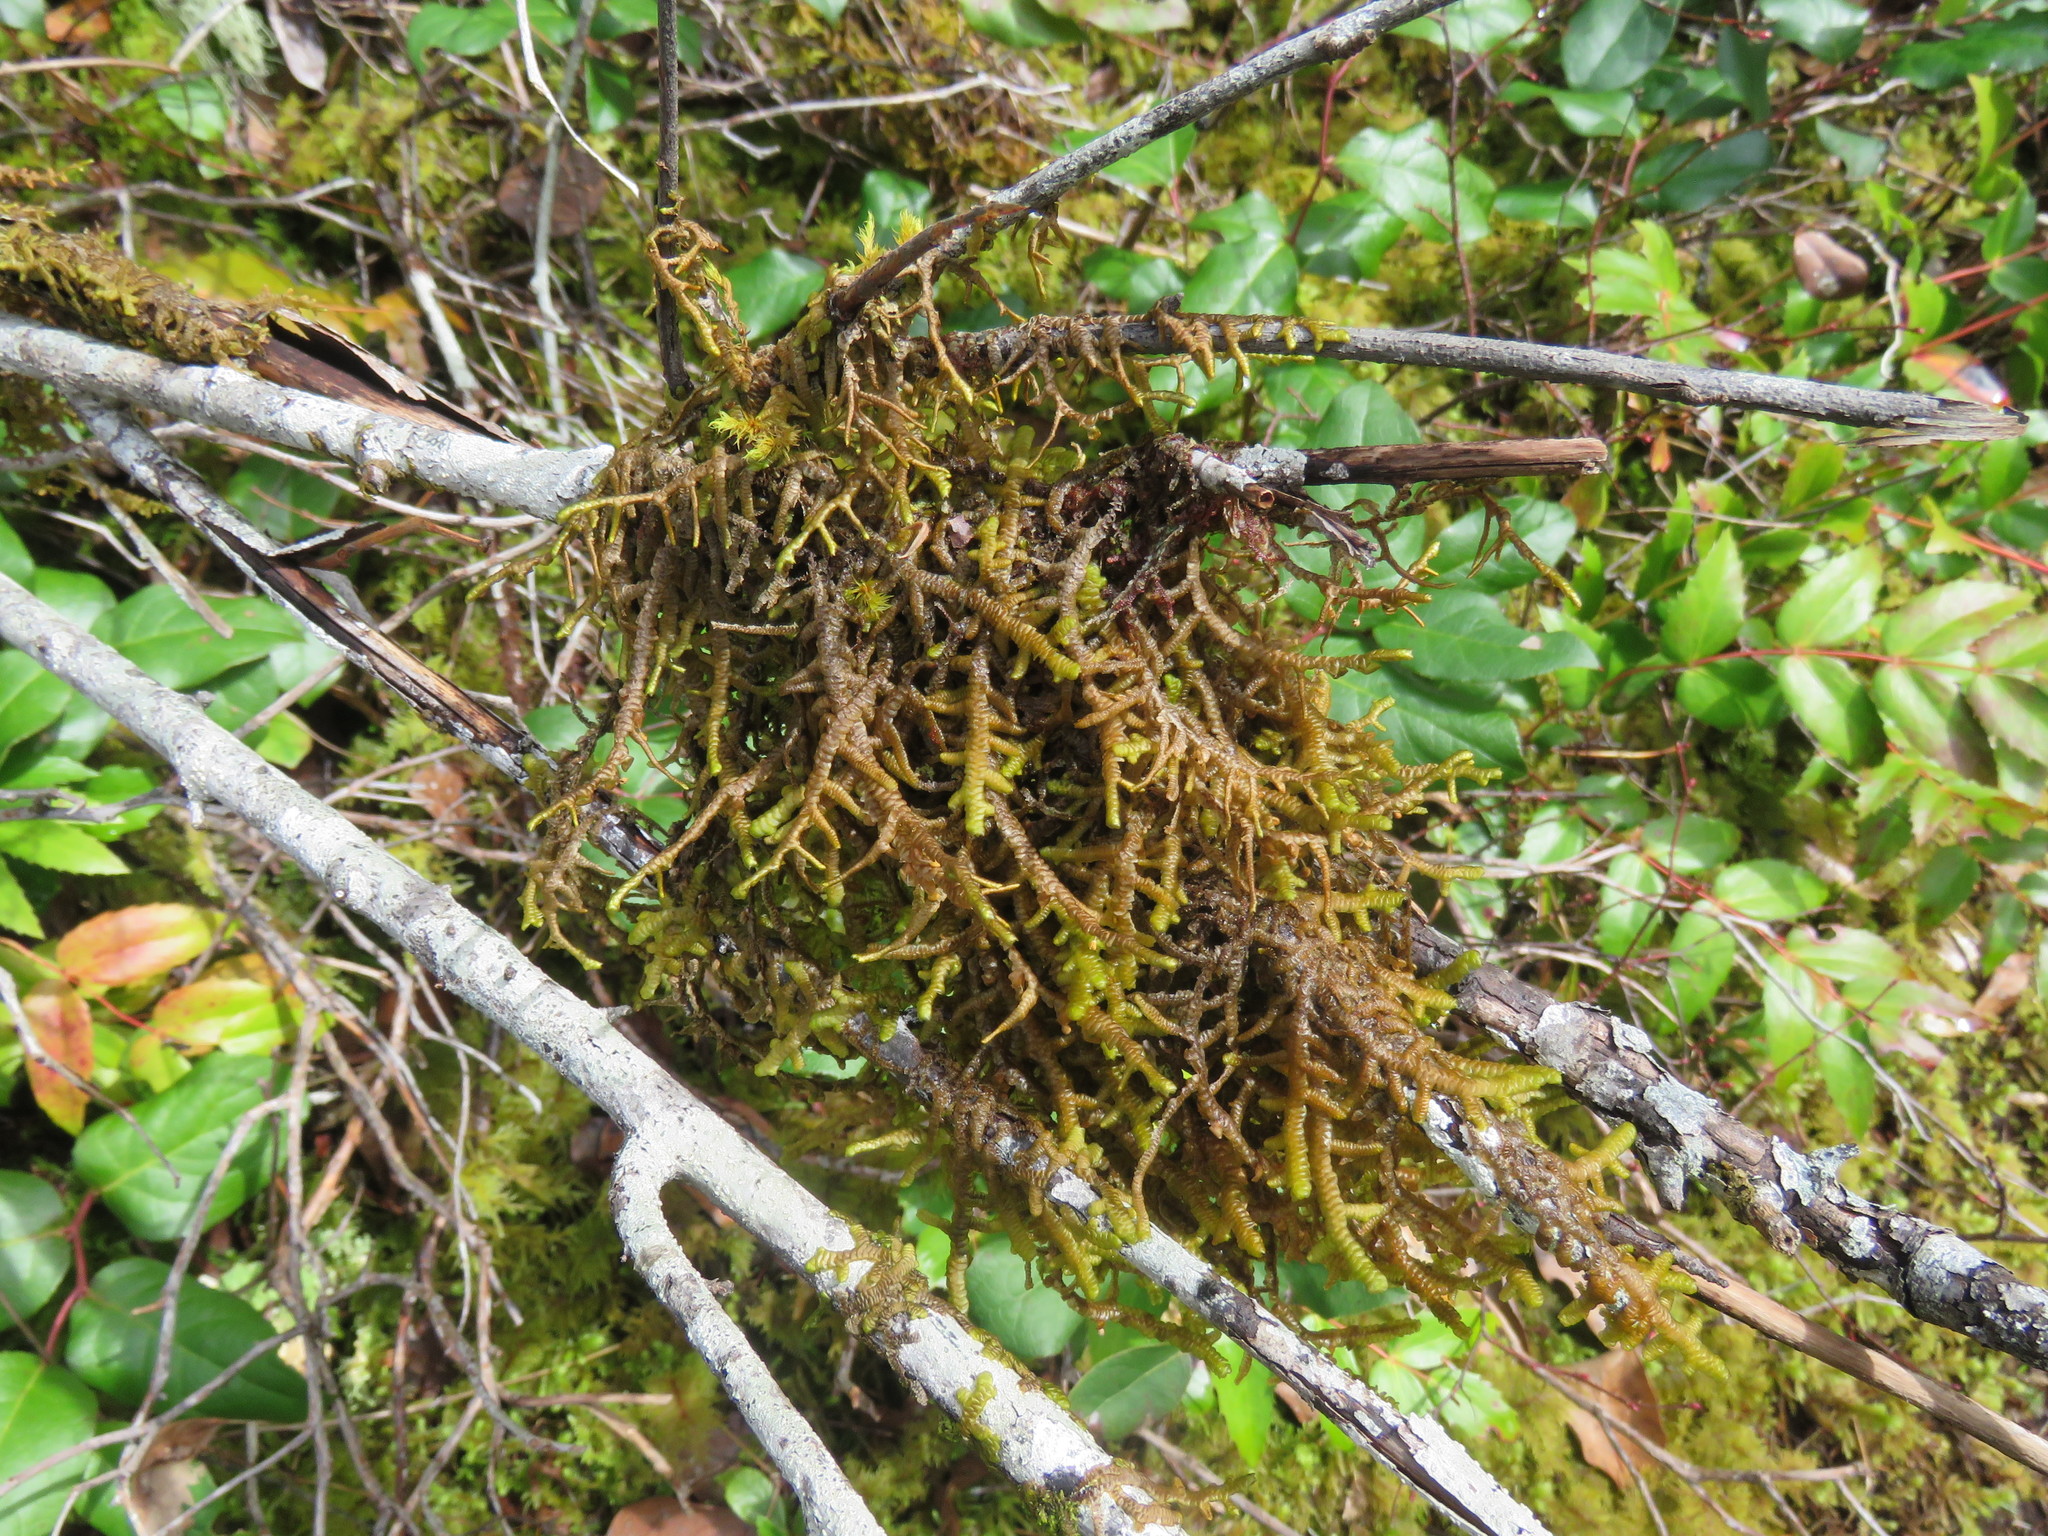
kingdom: Plantae
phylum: Marchantiophyta
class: Jungermanniopsida
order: Porellales
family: Porellaceae
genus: Porella
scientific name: Porella navicularis
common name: Tree ruffle liverwort
